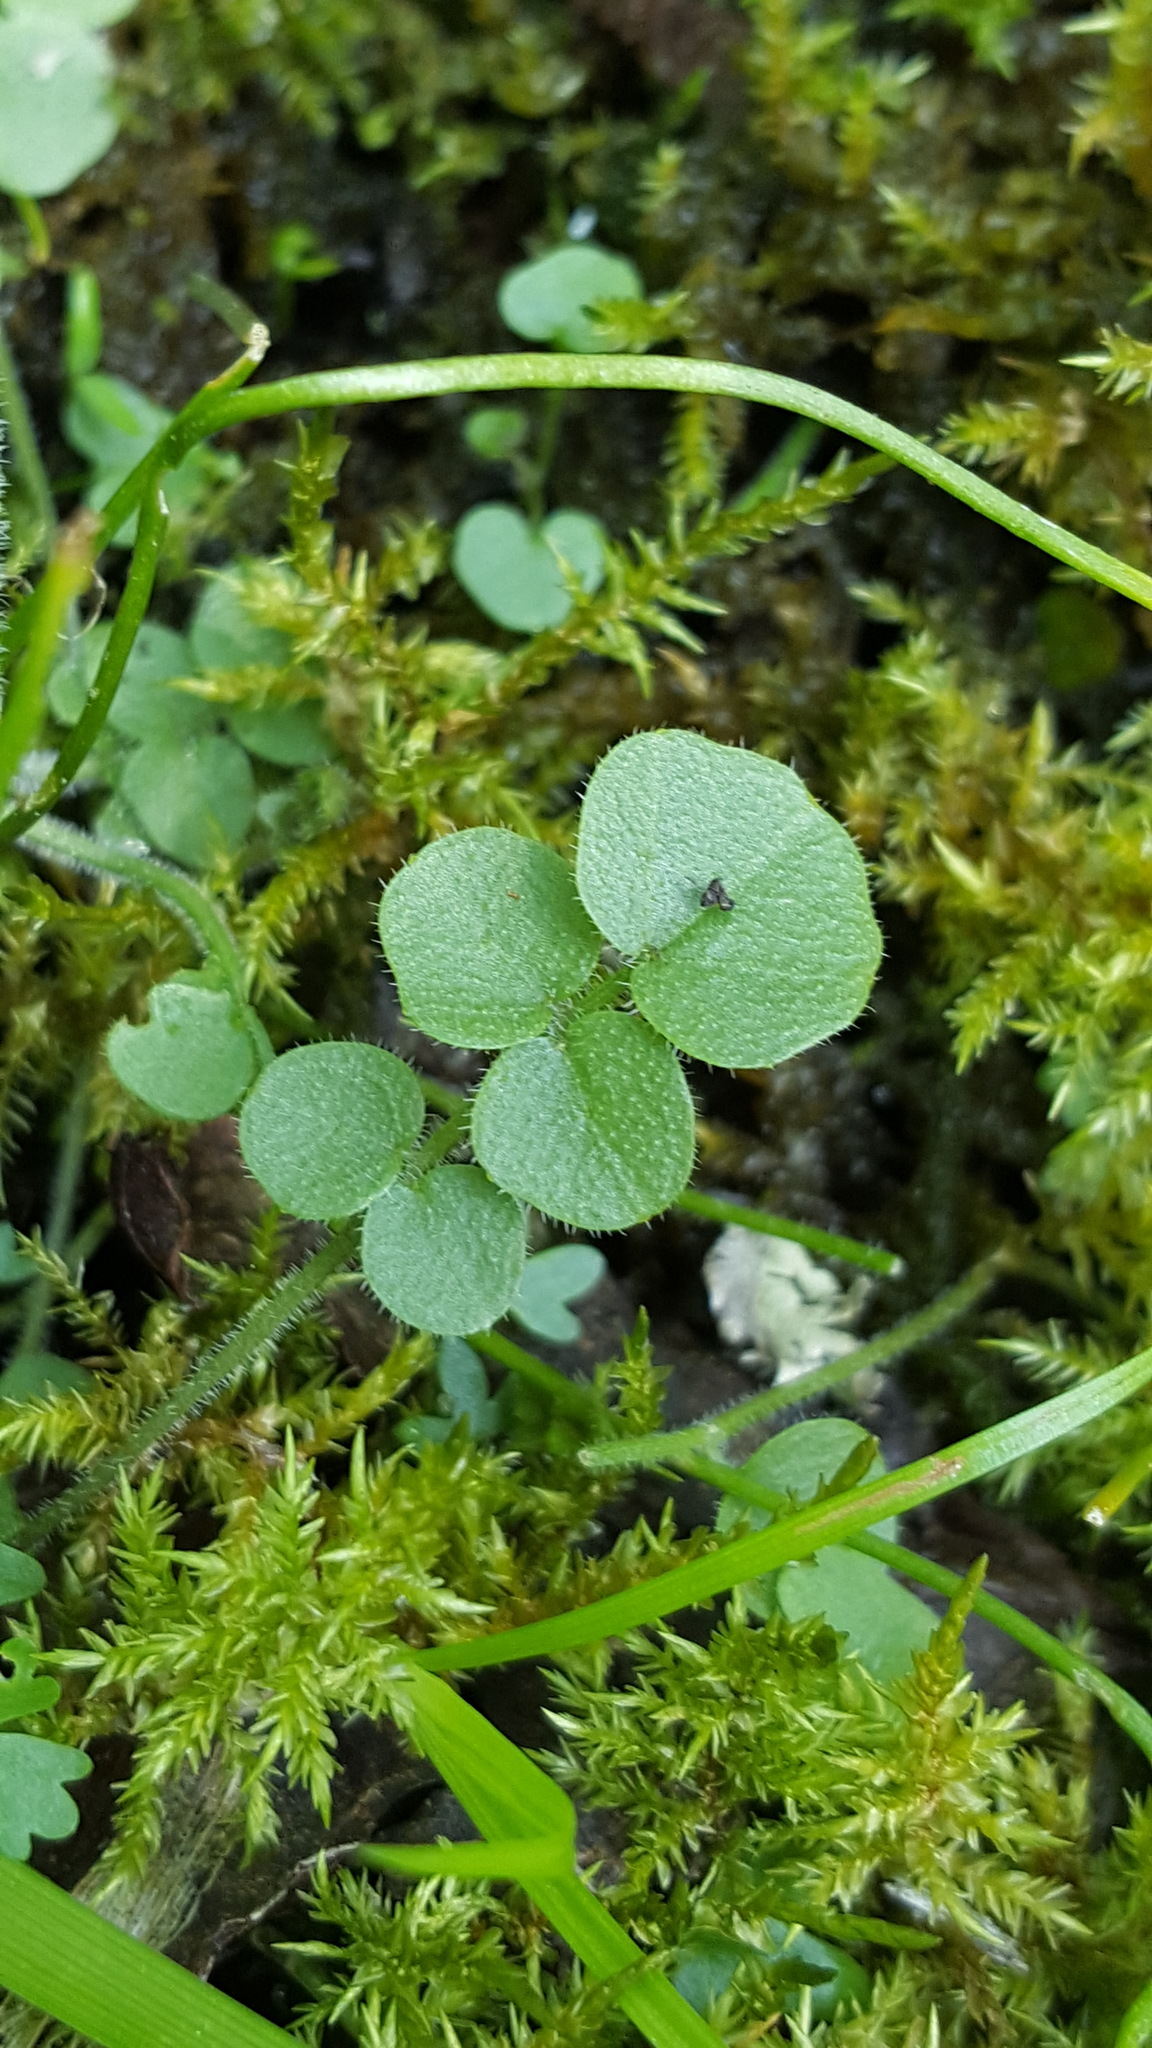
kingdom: Plantae
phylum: Tracheophyta
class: Magnoliopsida
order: Brassicales
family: Brassicaceae
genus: Cardamine
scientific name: Cardamine pratensis
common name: Cuckoo flower
